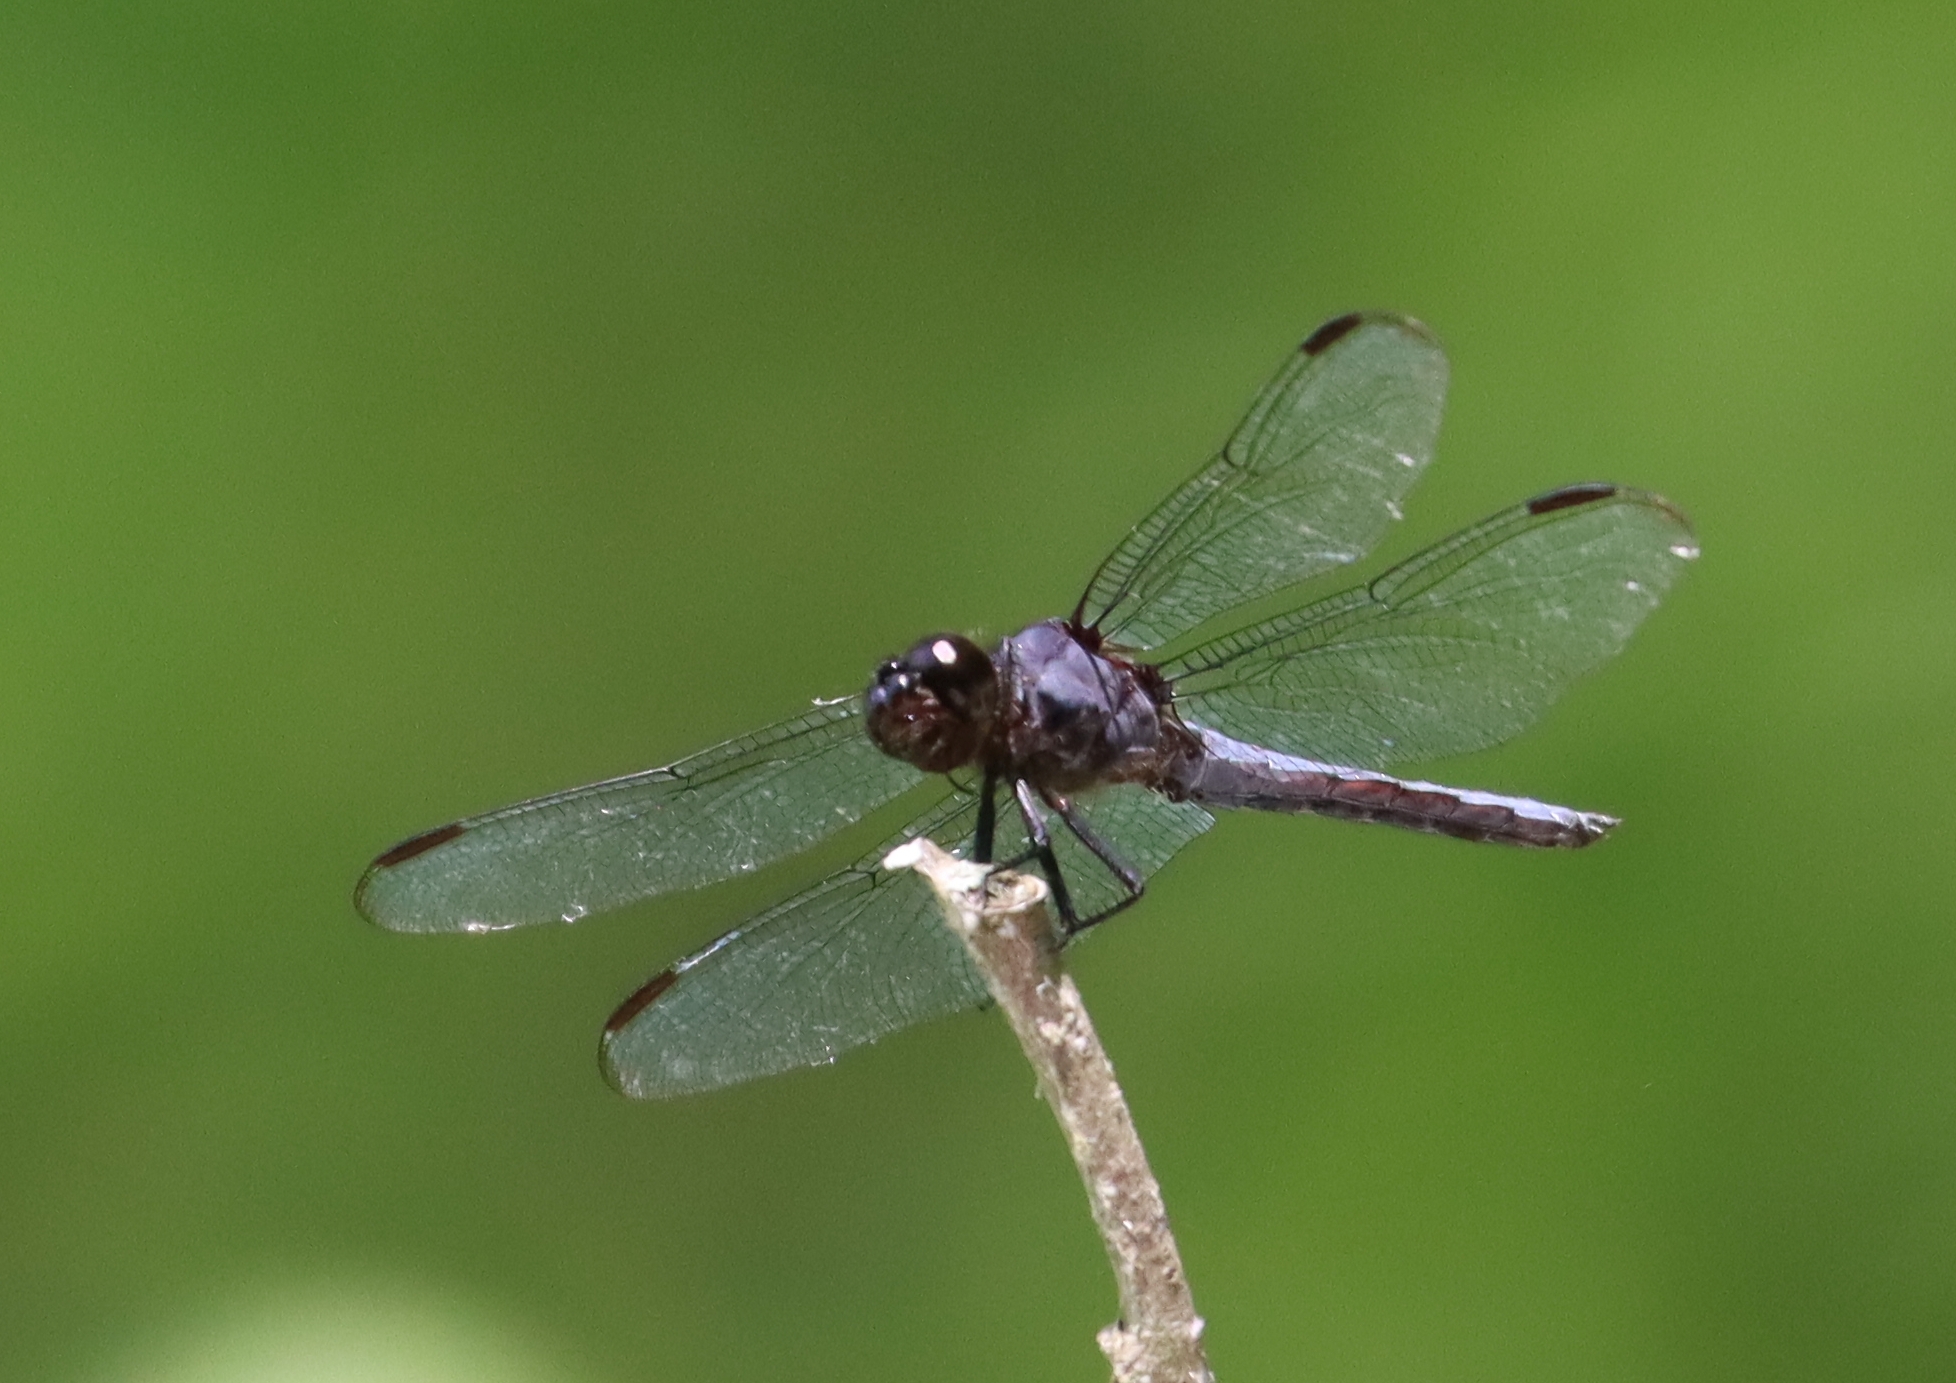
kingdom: Animalia
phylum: Arthropoda
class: Insecta
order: Odonata
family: Libellulidae
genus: Libellula
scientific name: Libellula incesta
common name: Slaty skimmer
